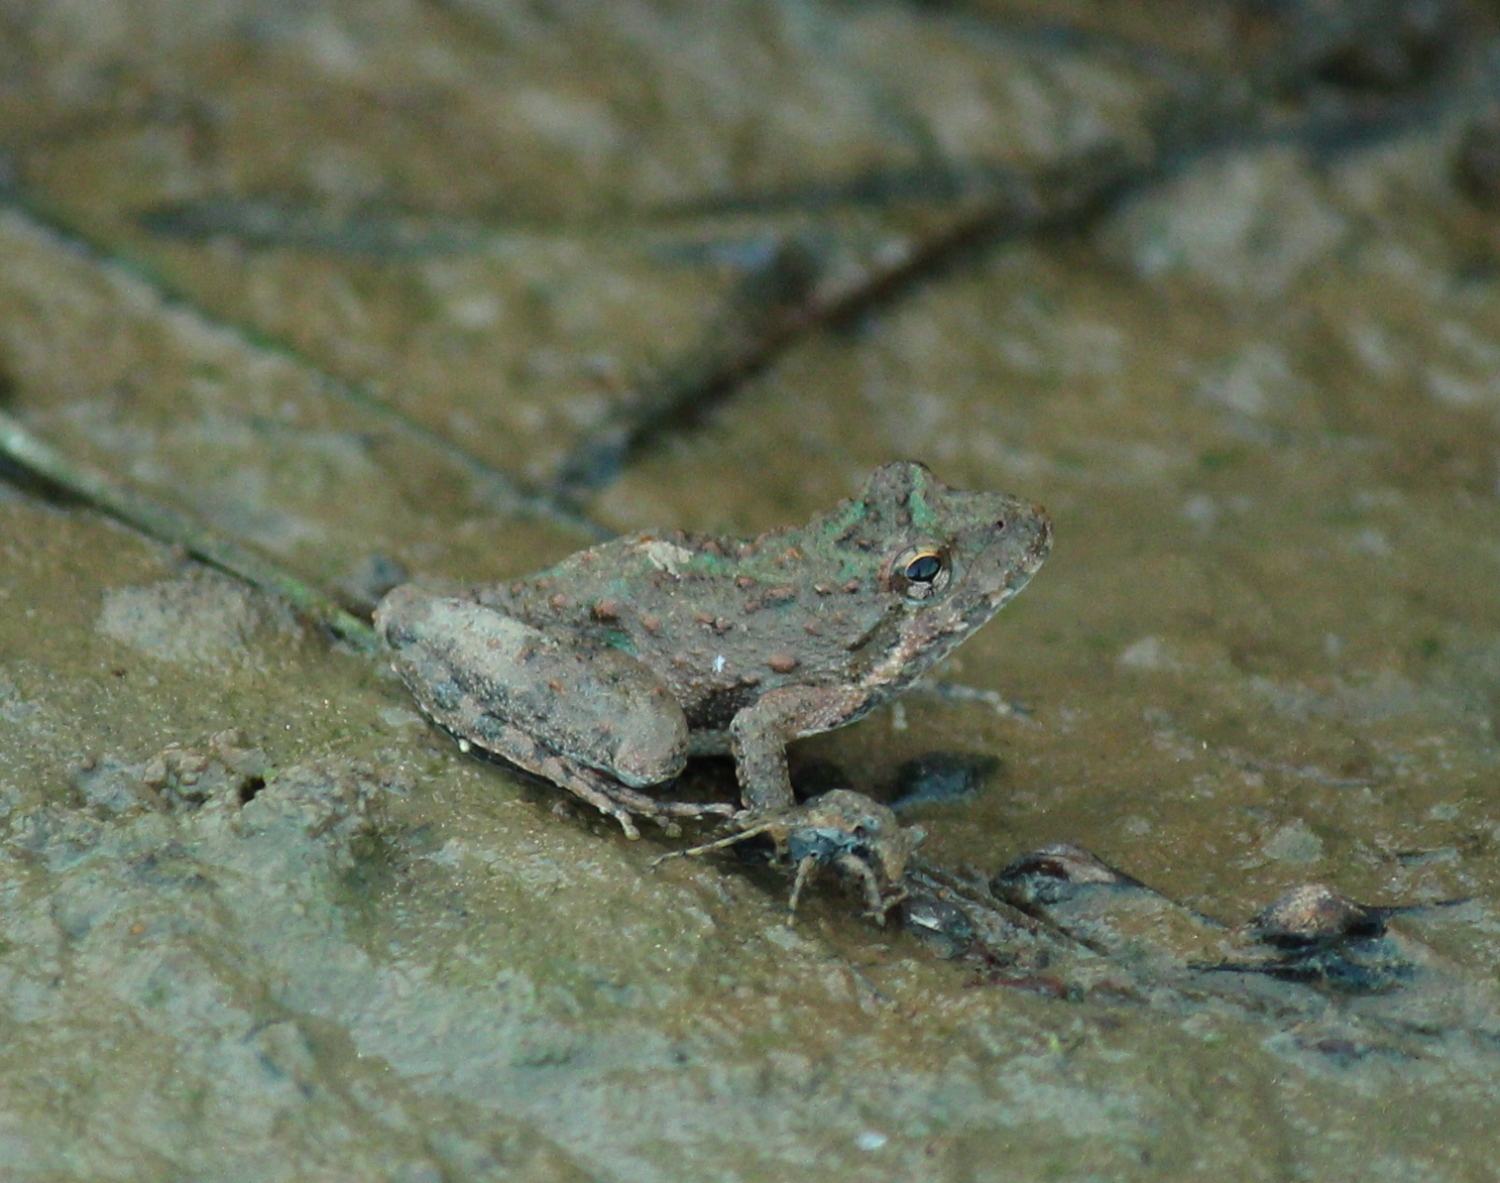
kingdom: Animalia
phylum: Chordata
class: Amphibia
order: Anura
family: Hylidae
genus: Acris
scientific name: Acris blanchardi
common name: Blanchard's cricket frog
